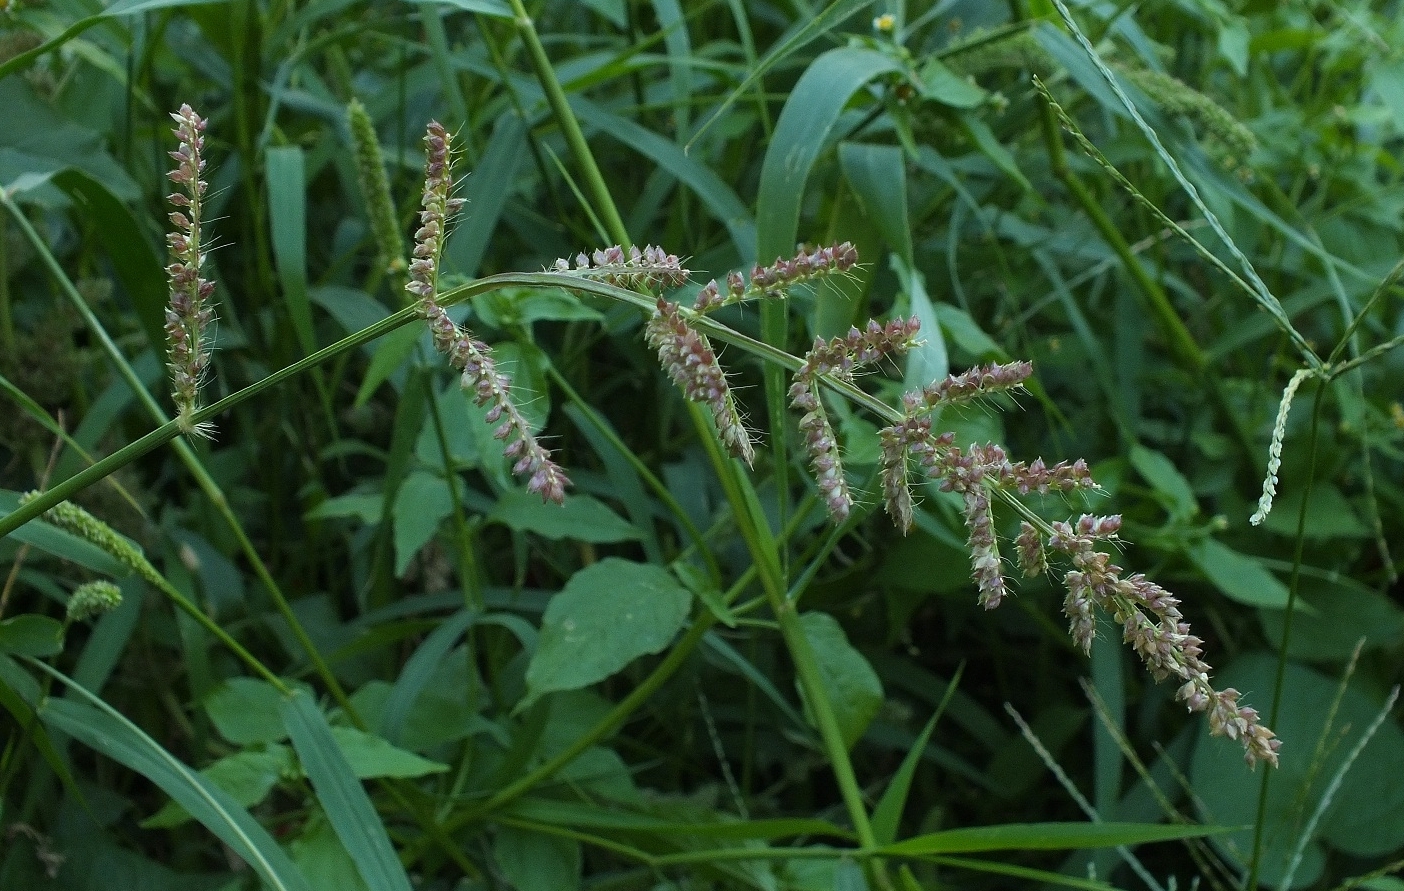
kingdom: Plantae
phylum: Tracheophyta
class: Liliopsida
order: Poales
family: Poaceae
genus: Echinochloa
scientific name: Echinochloa crus-galli
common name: Cockspur
